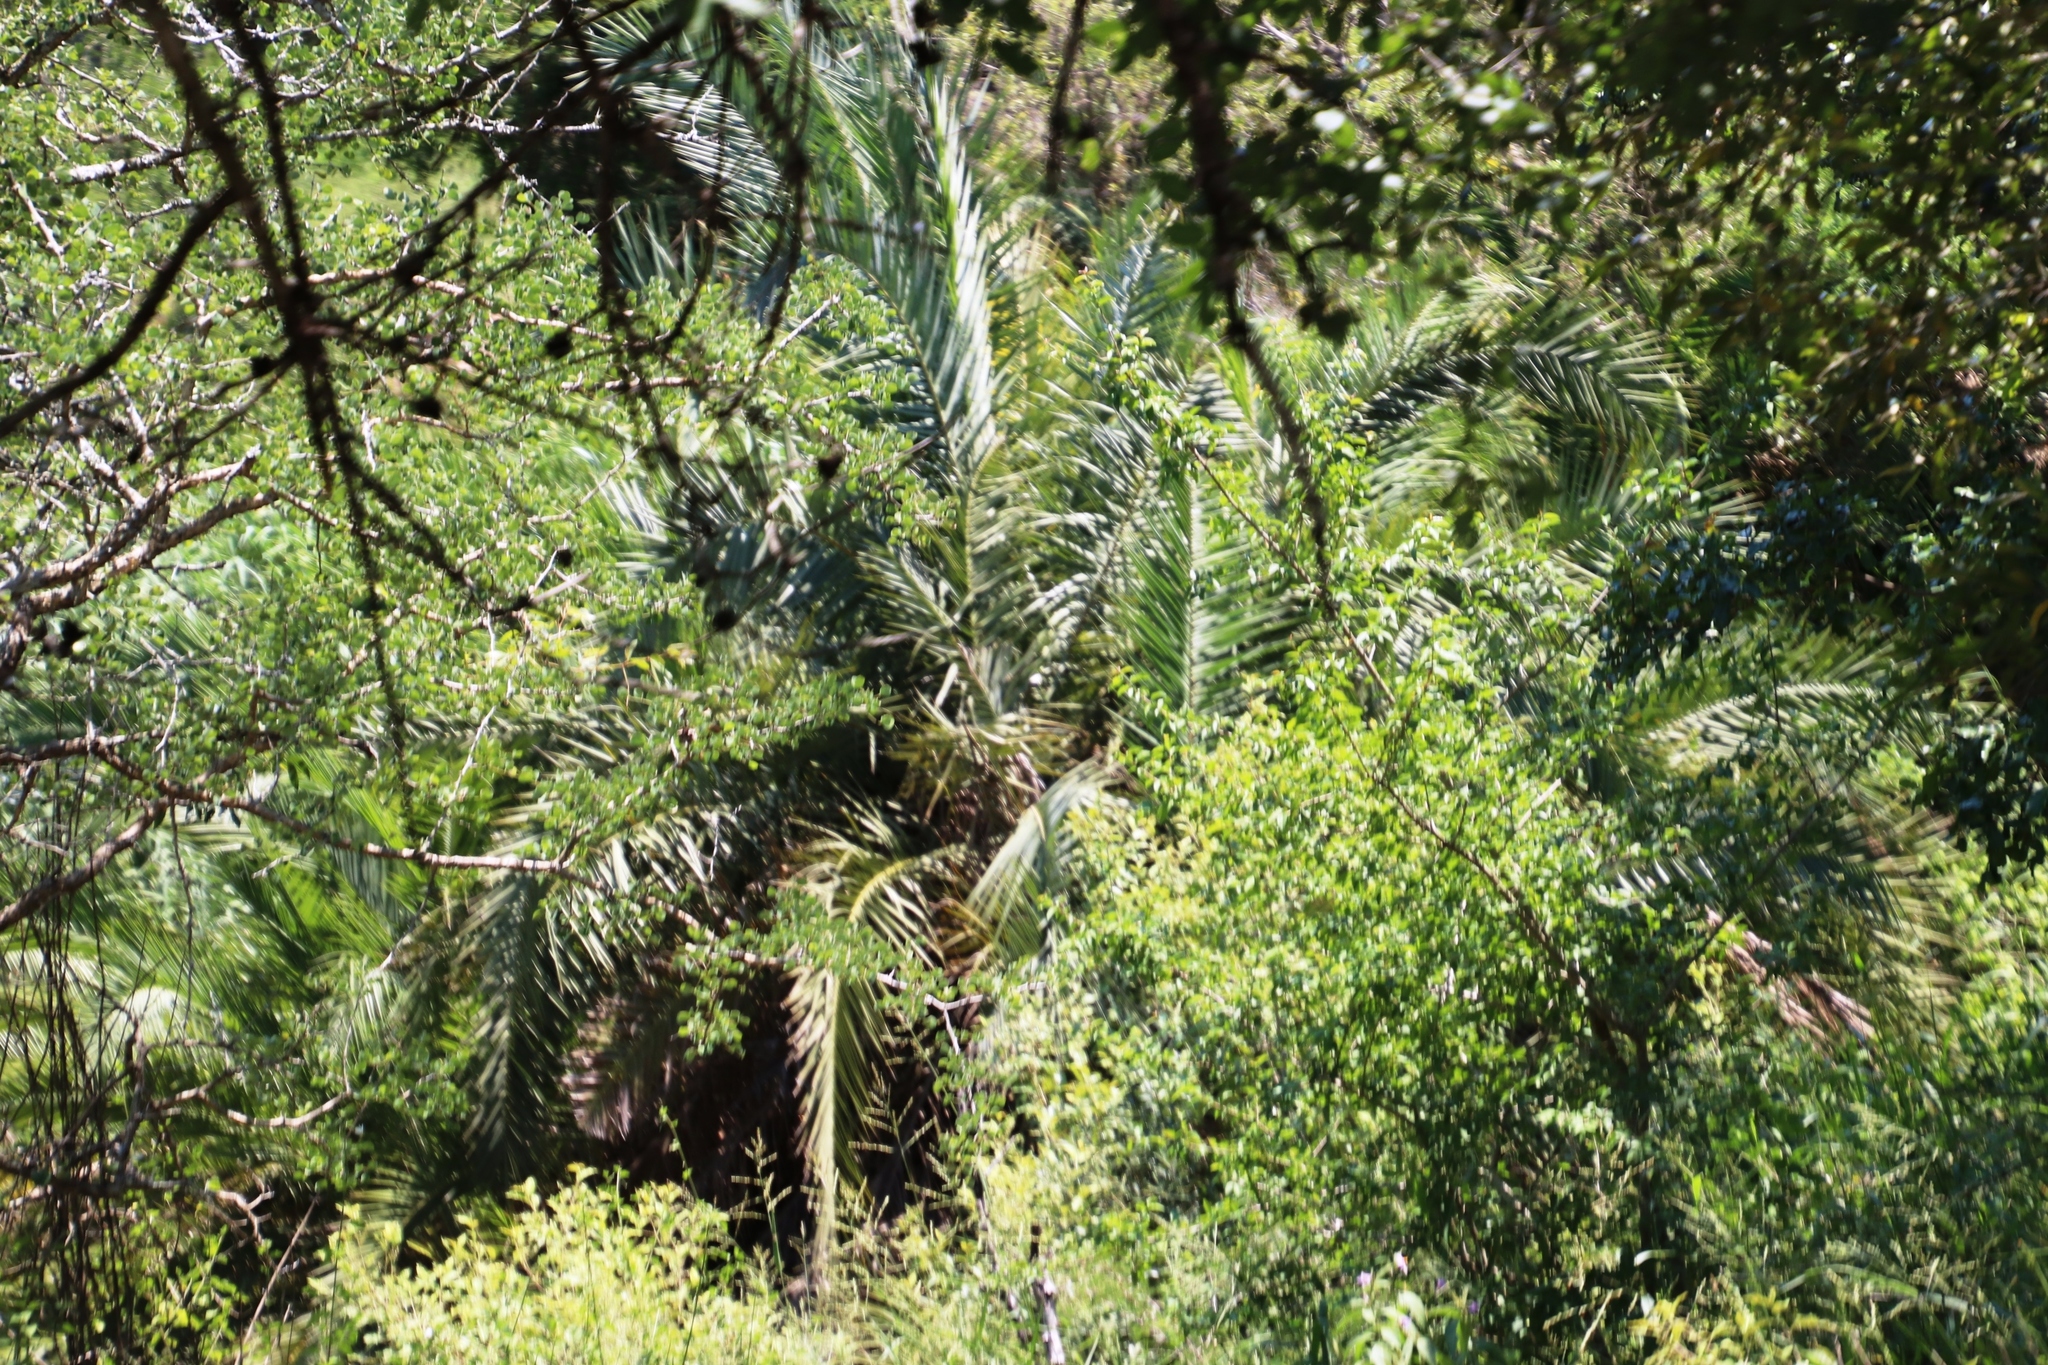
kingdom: Plantae
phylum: Tracheophyta
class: Liliopsida
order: Arecales
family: Arecaceae
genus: Phoenix
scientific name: Phoenix reclinata
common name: Senegal date palm
